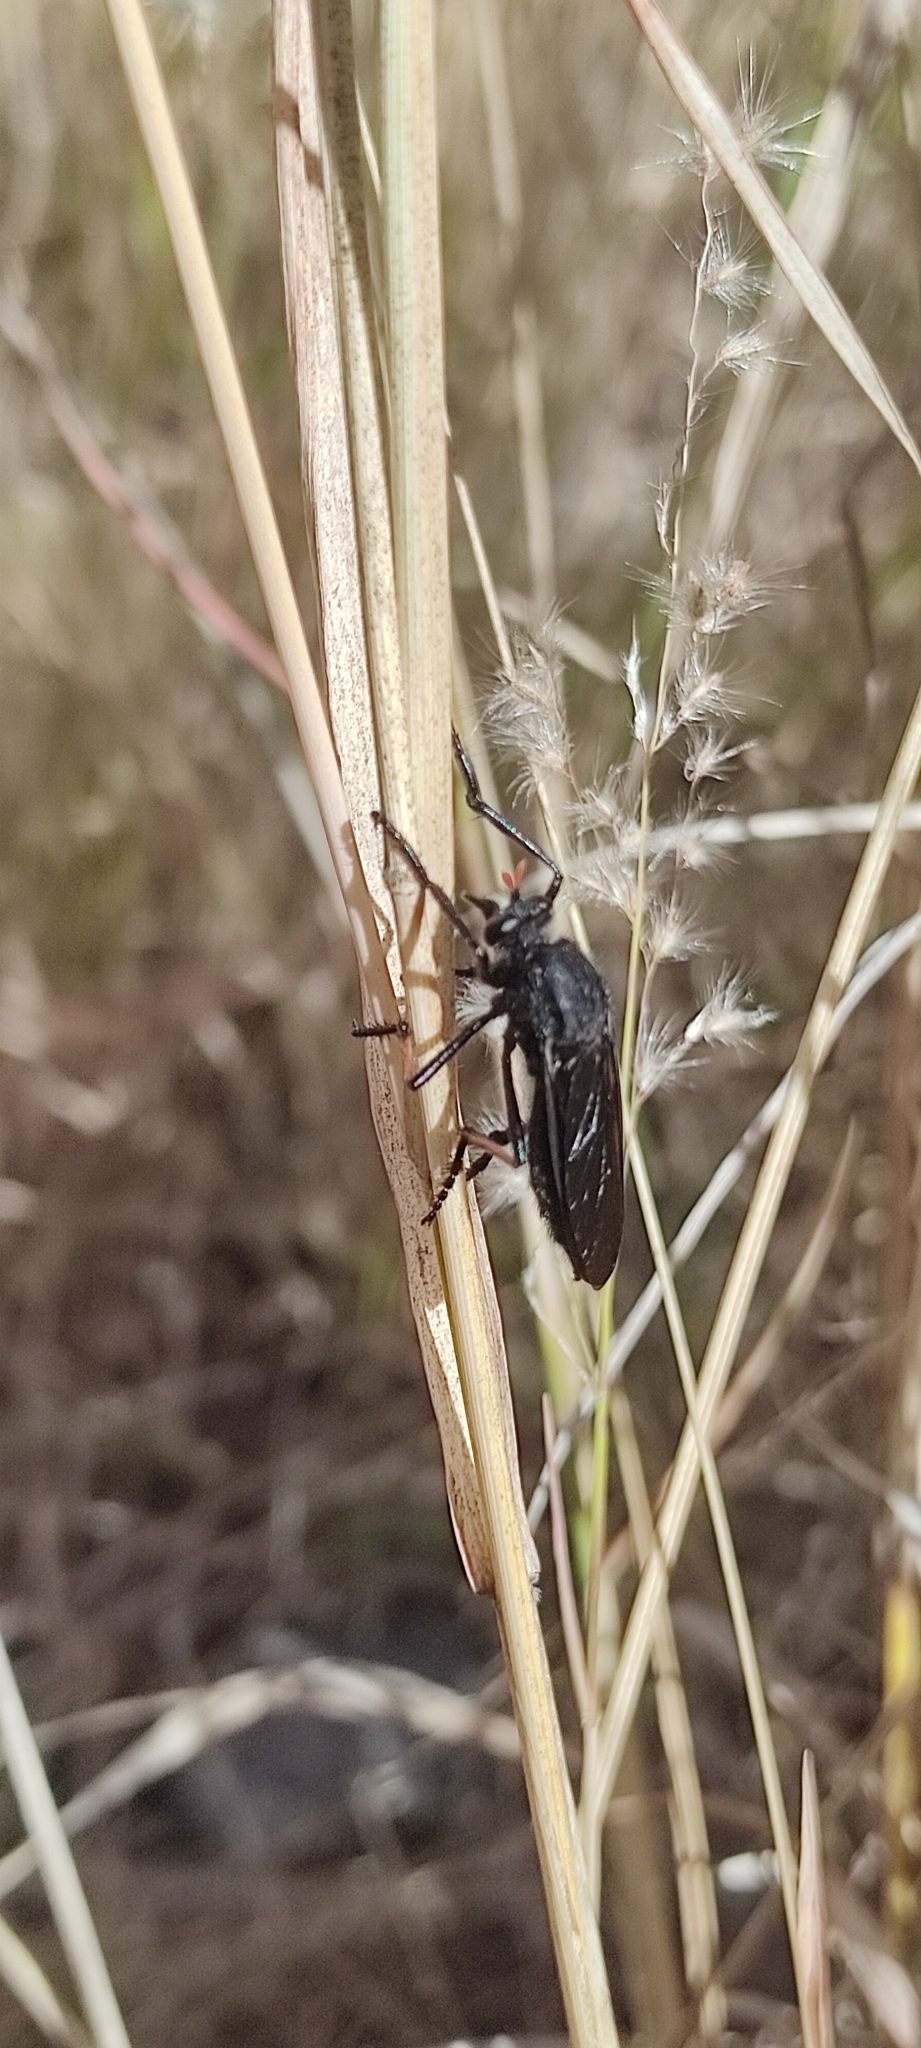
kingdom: Animalia
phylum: Arthropoda
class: Insecta
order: Diptera
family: Asilidae
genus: Pronomopsis
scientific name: Pronomopsis pseudorubripes
